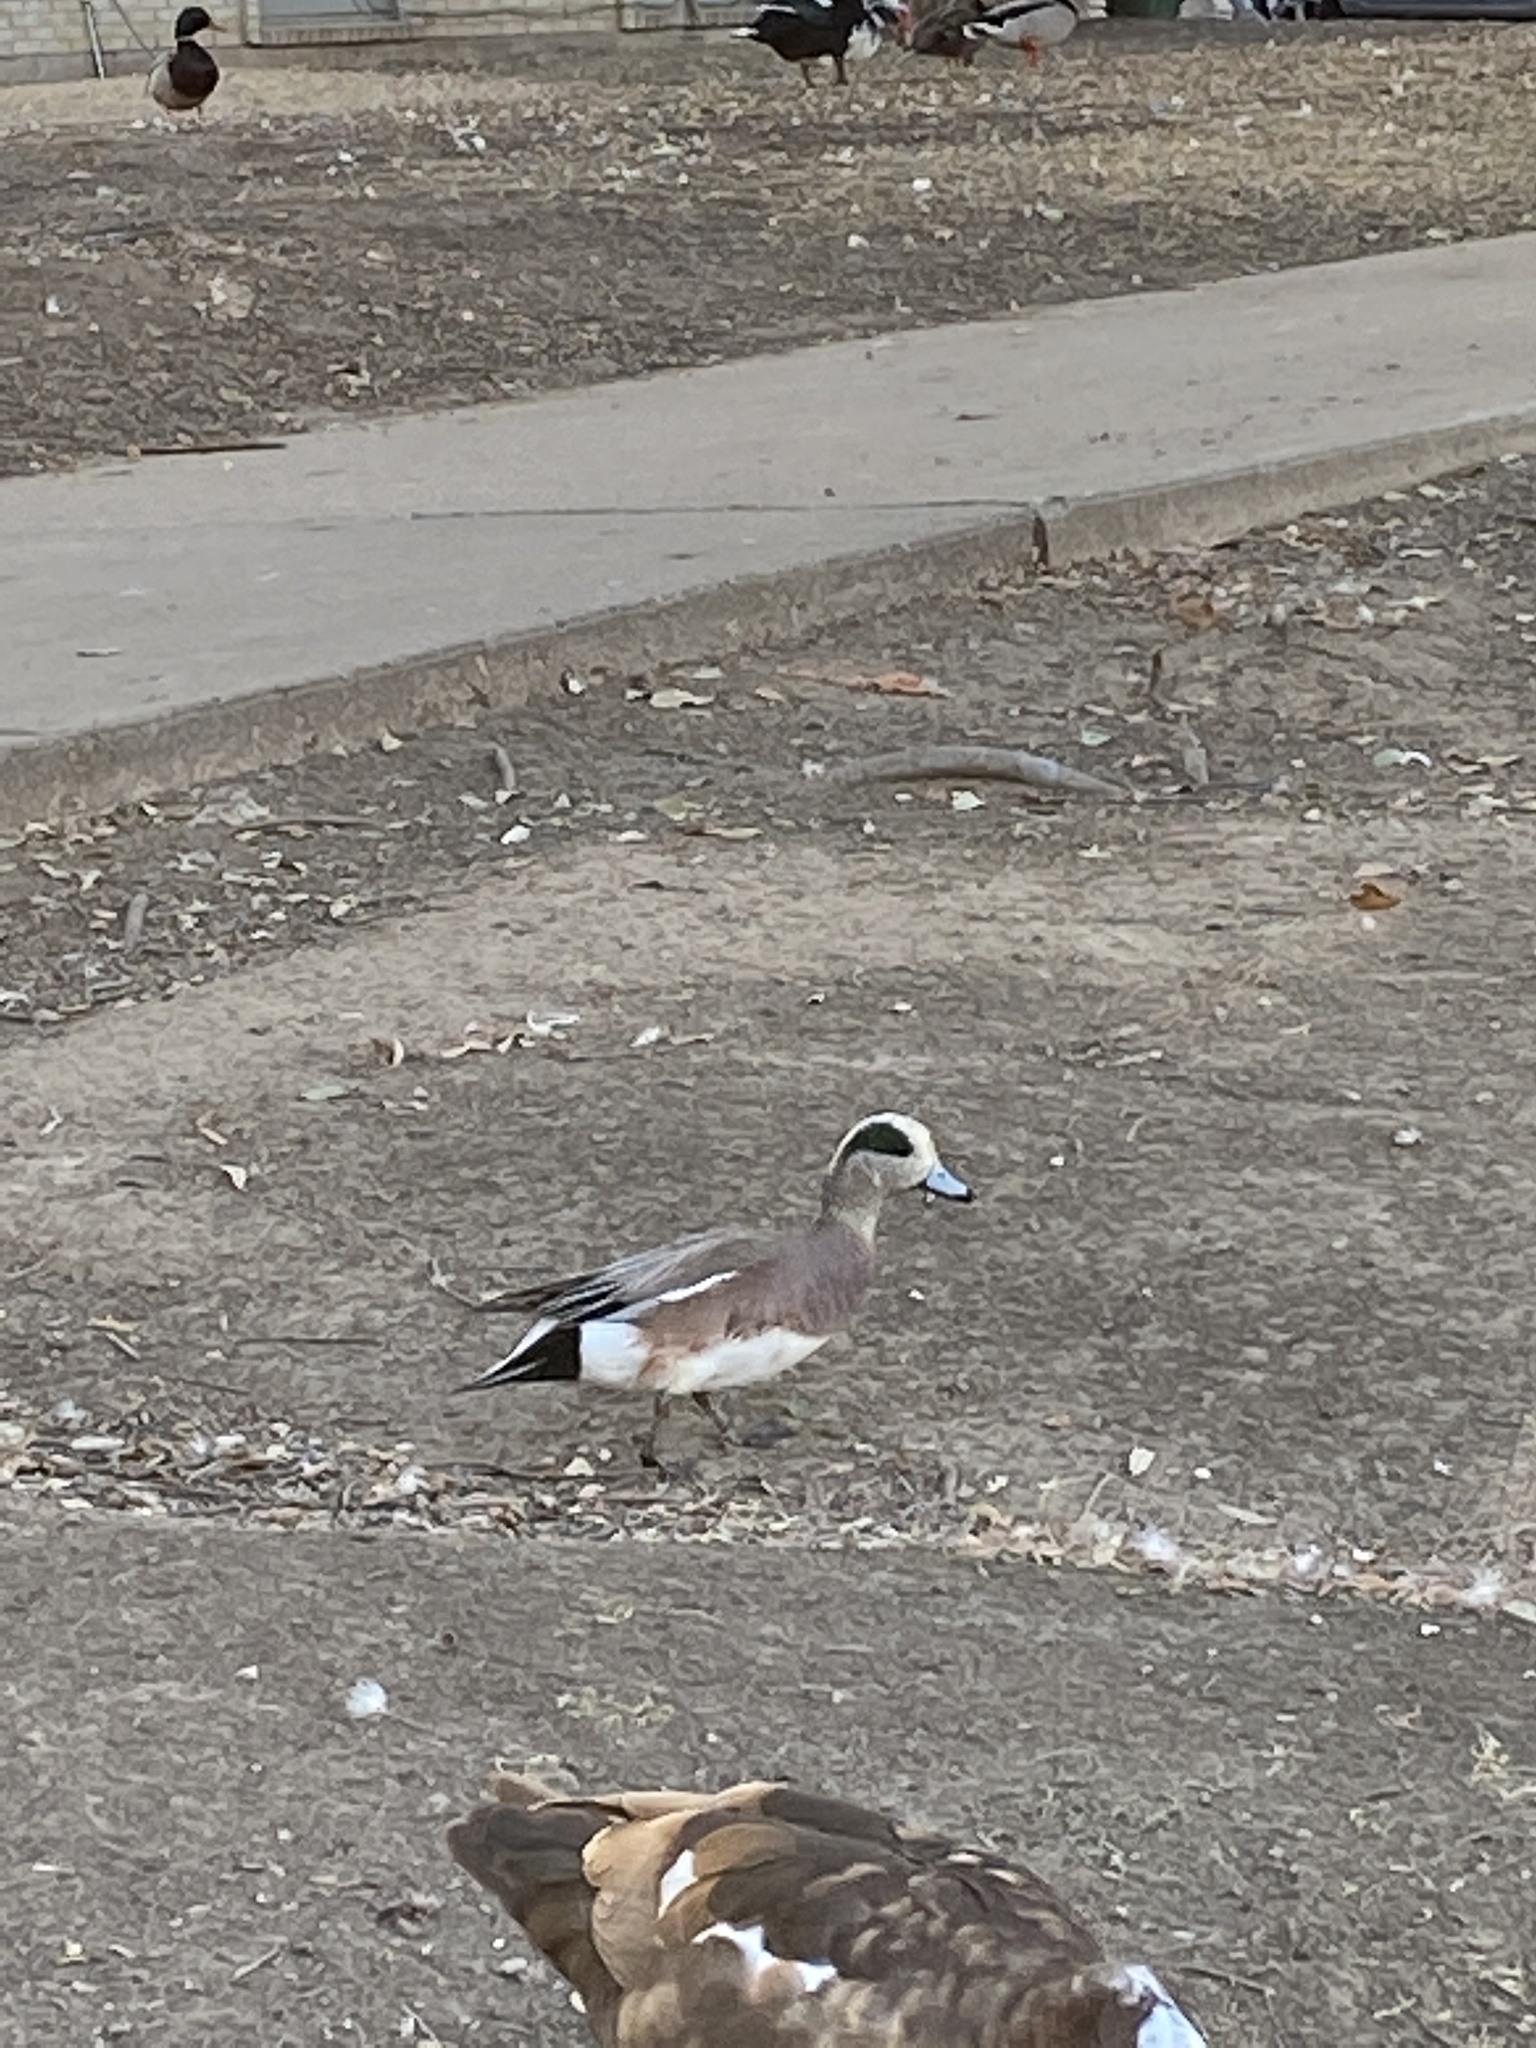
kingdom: Animalia
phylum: Chordata
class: Aves
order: Anseriformes
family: Anatidae
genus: Mareca
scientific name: Mareca americana
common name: American wigeon
